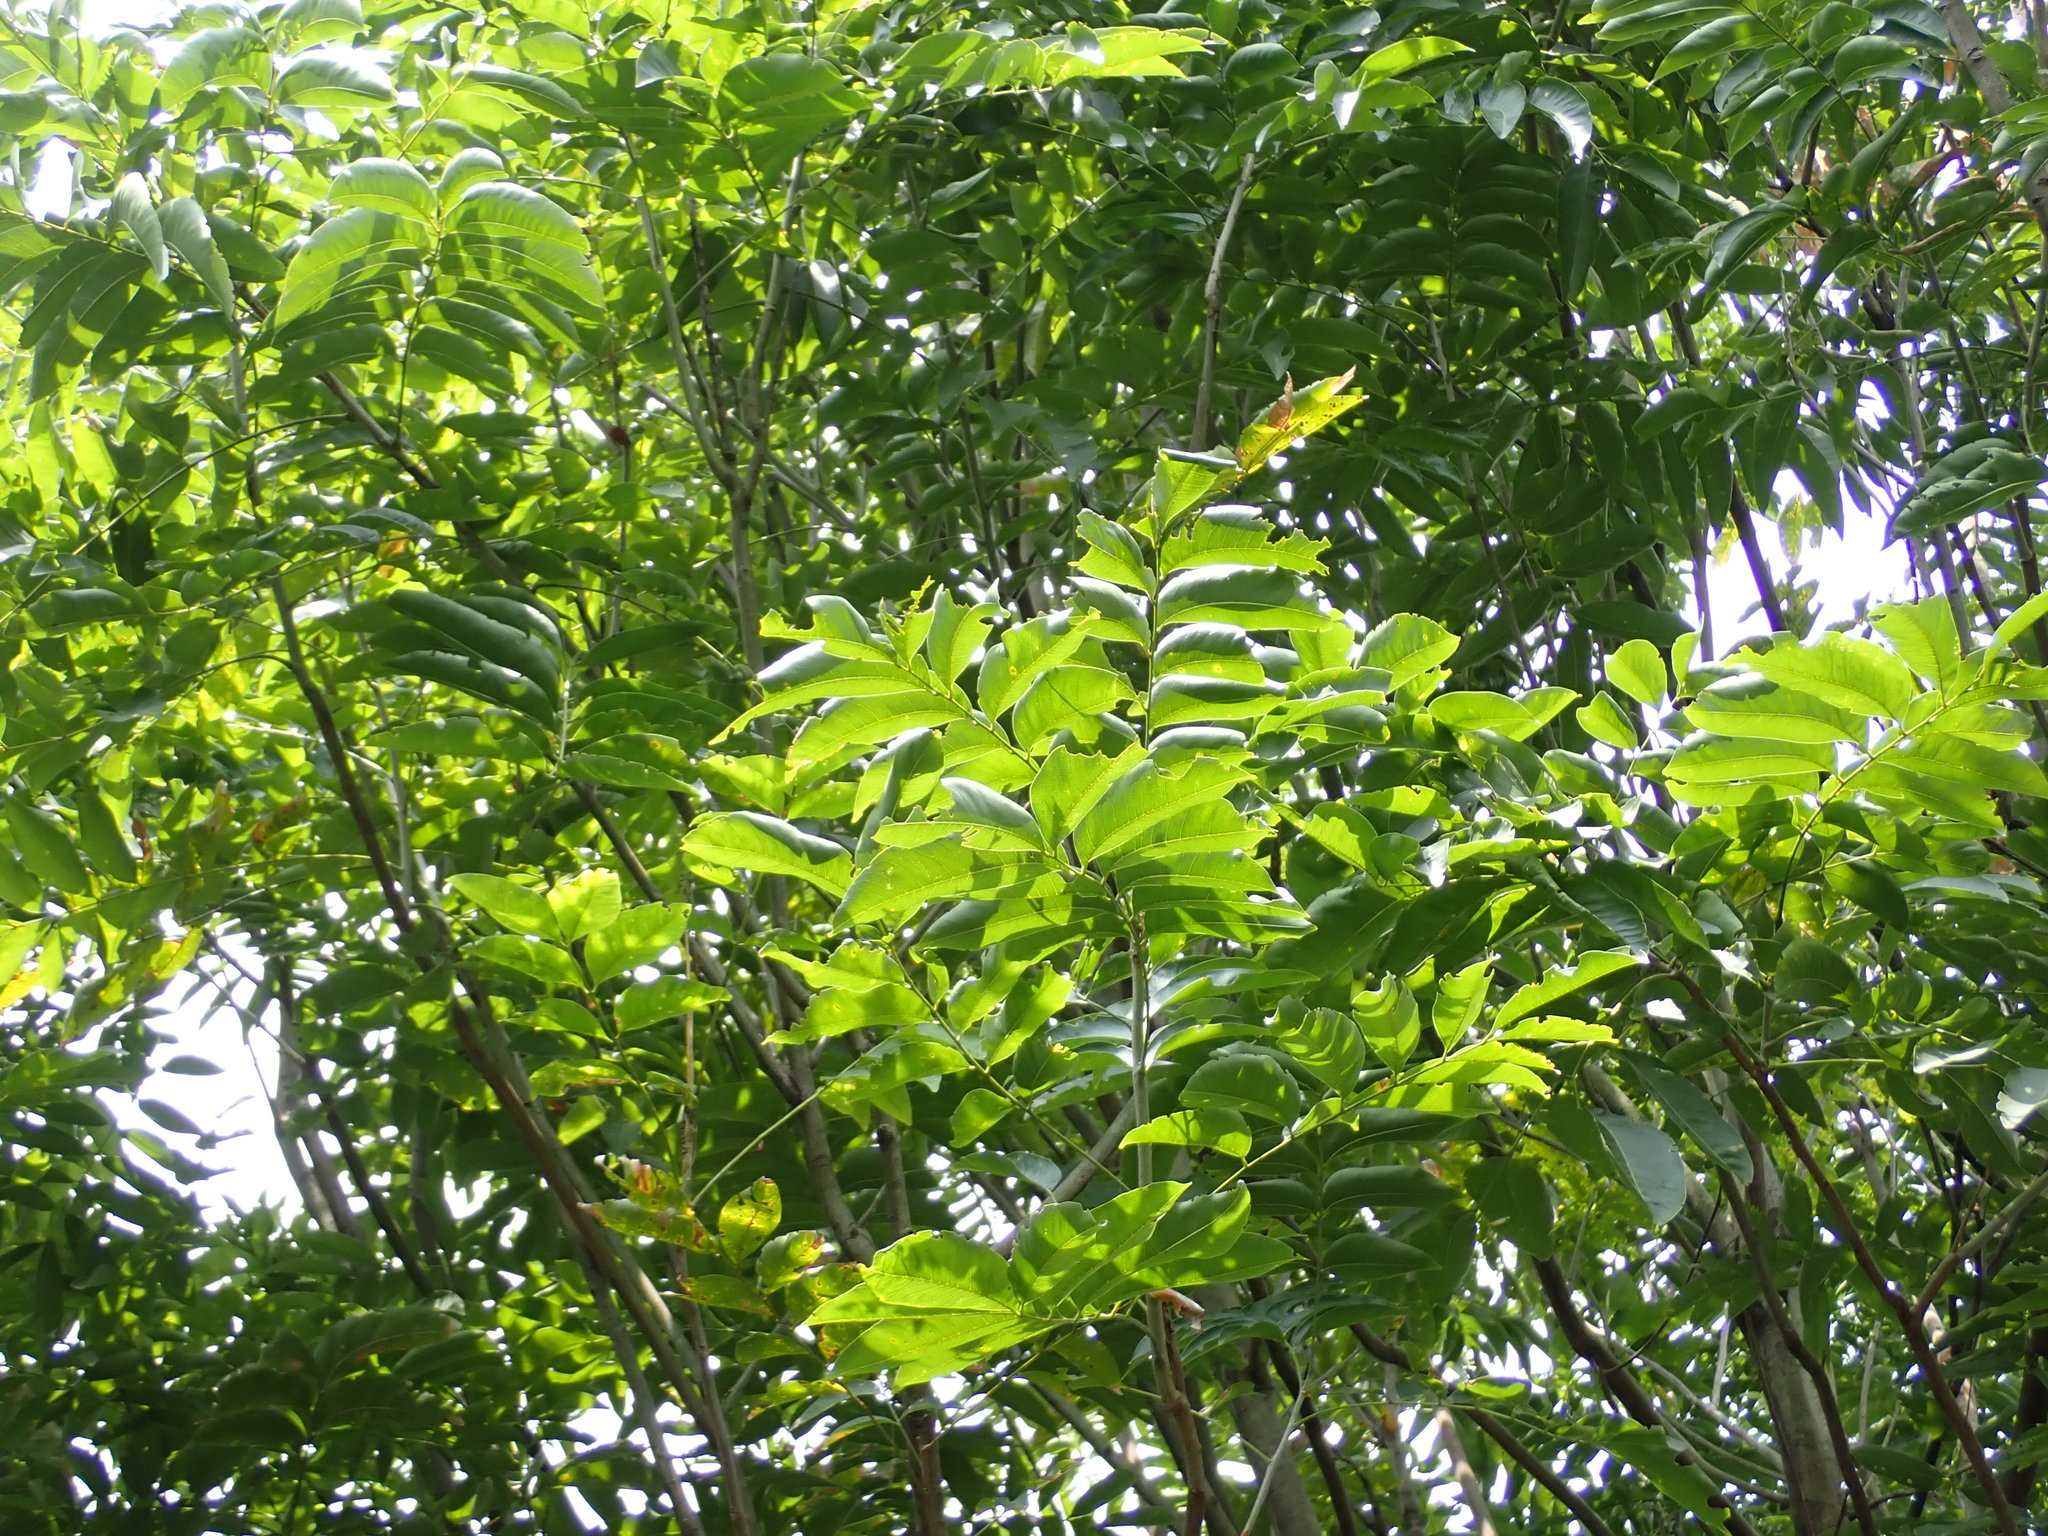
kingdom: Plantae
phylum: Tracheophyta
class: Magnoliopsida
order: Sapindales
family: Sapindaceae
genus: Sapindus
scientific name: Sapindus mukorossi
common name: Chinese soapberry
